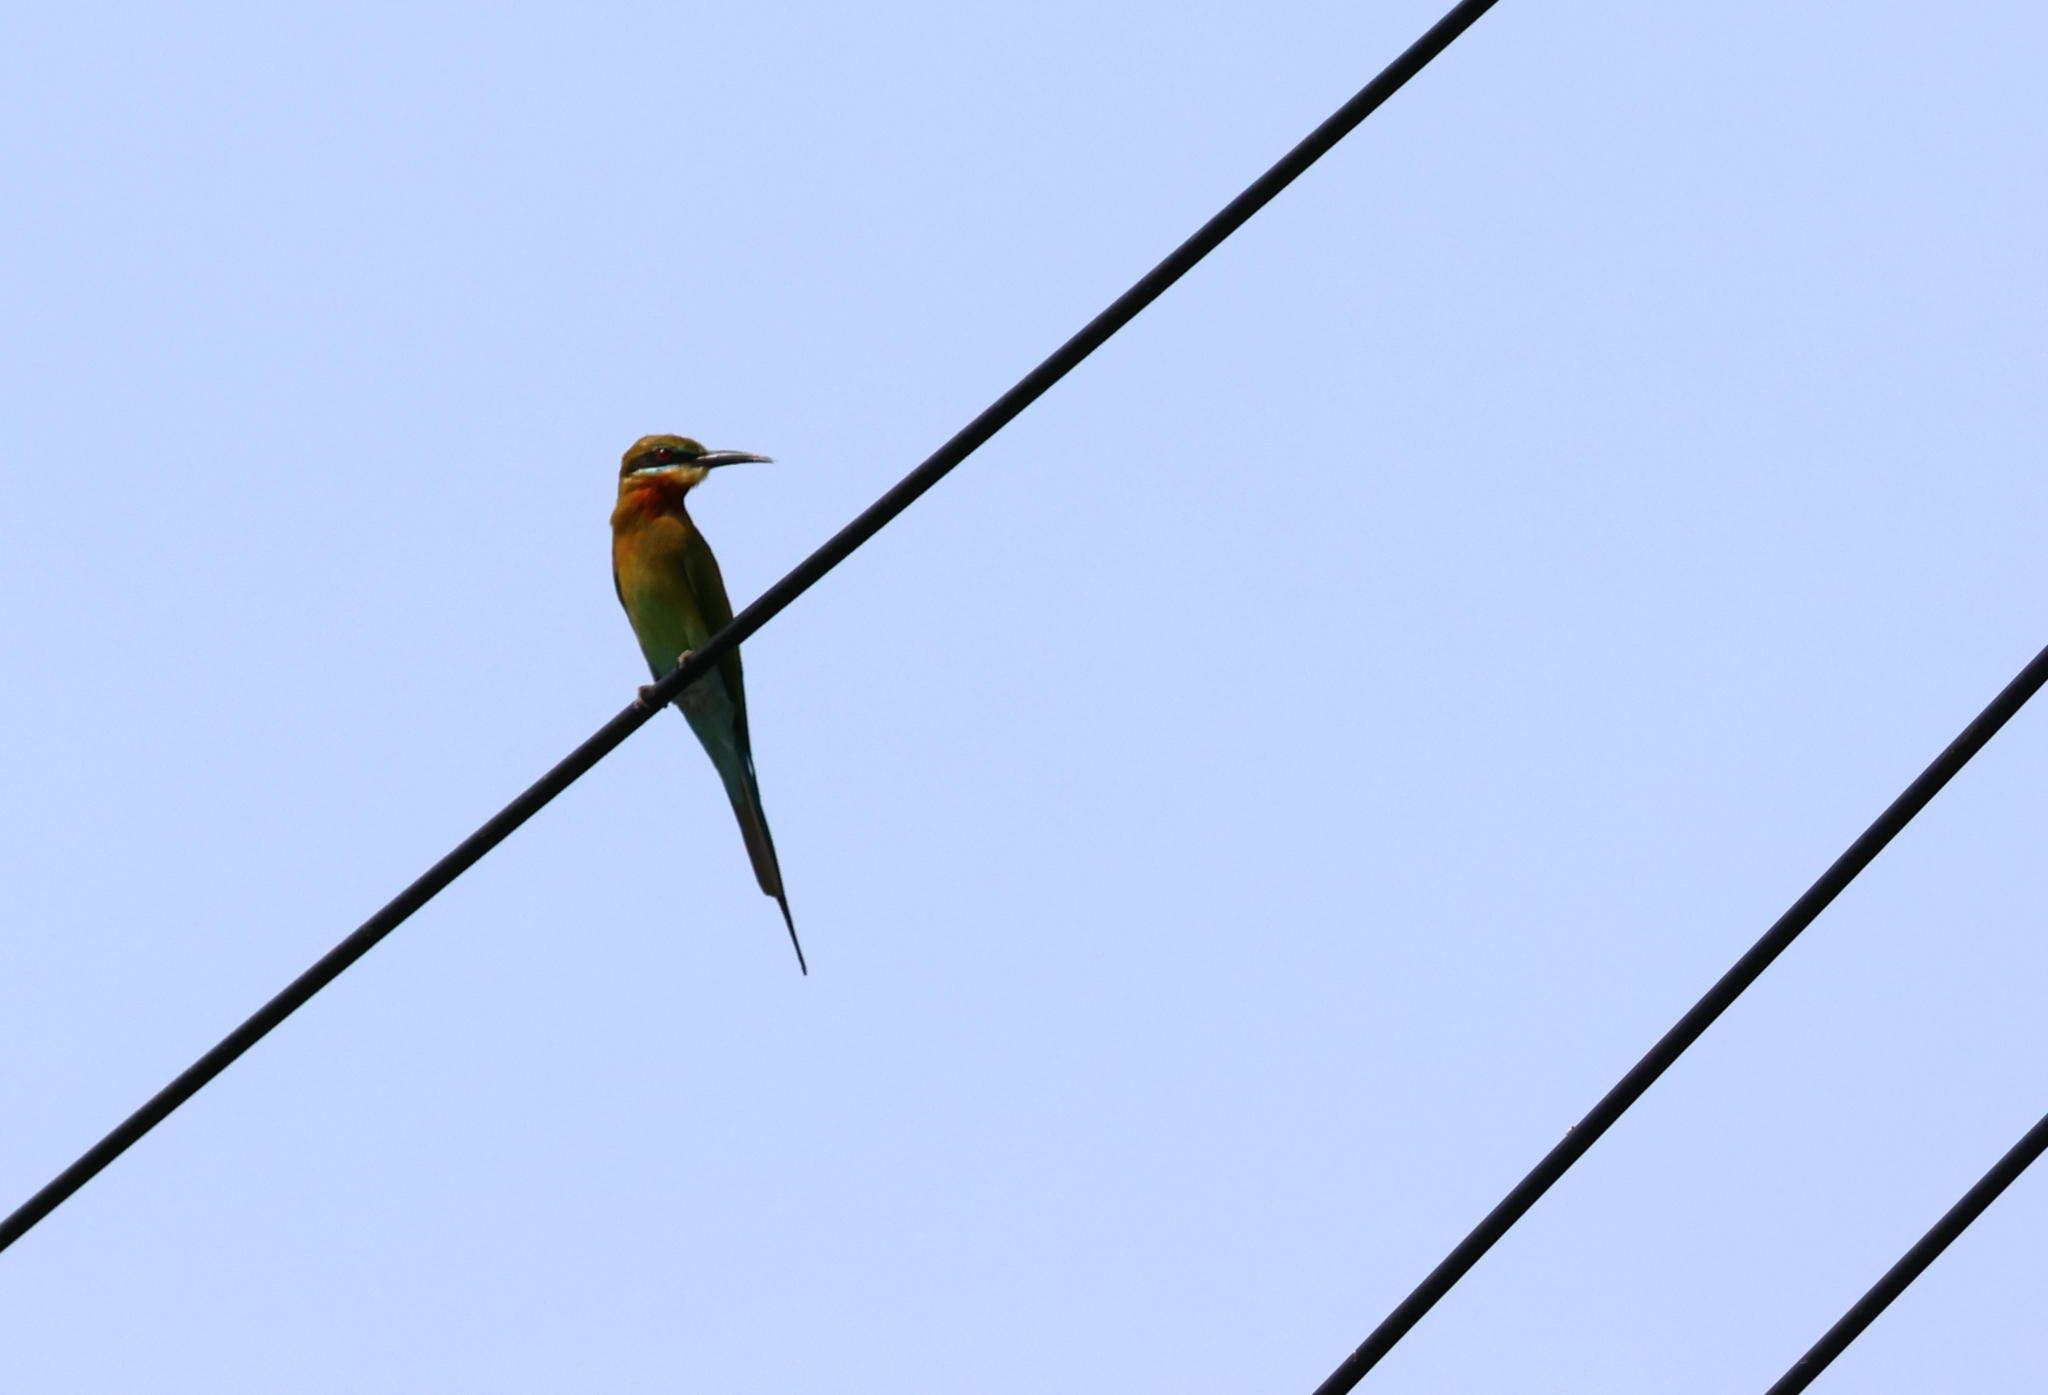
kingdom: Animalia
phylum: Chordata
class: Aves
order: Coraciiformes
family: Meropidae
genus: Merops
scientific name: Merops philippinus
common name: Blue-tailed bee-eater
